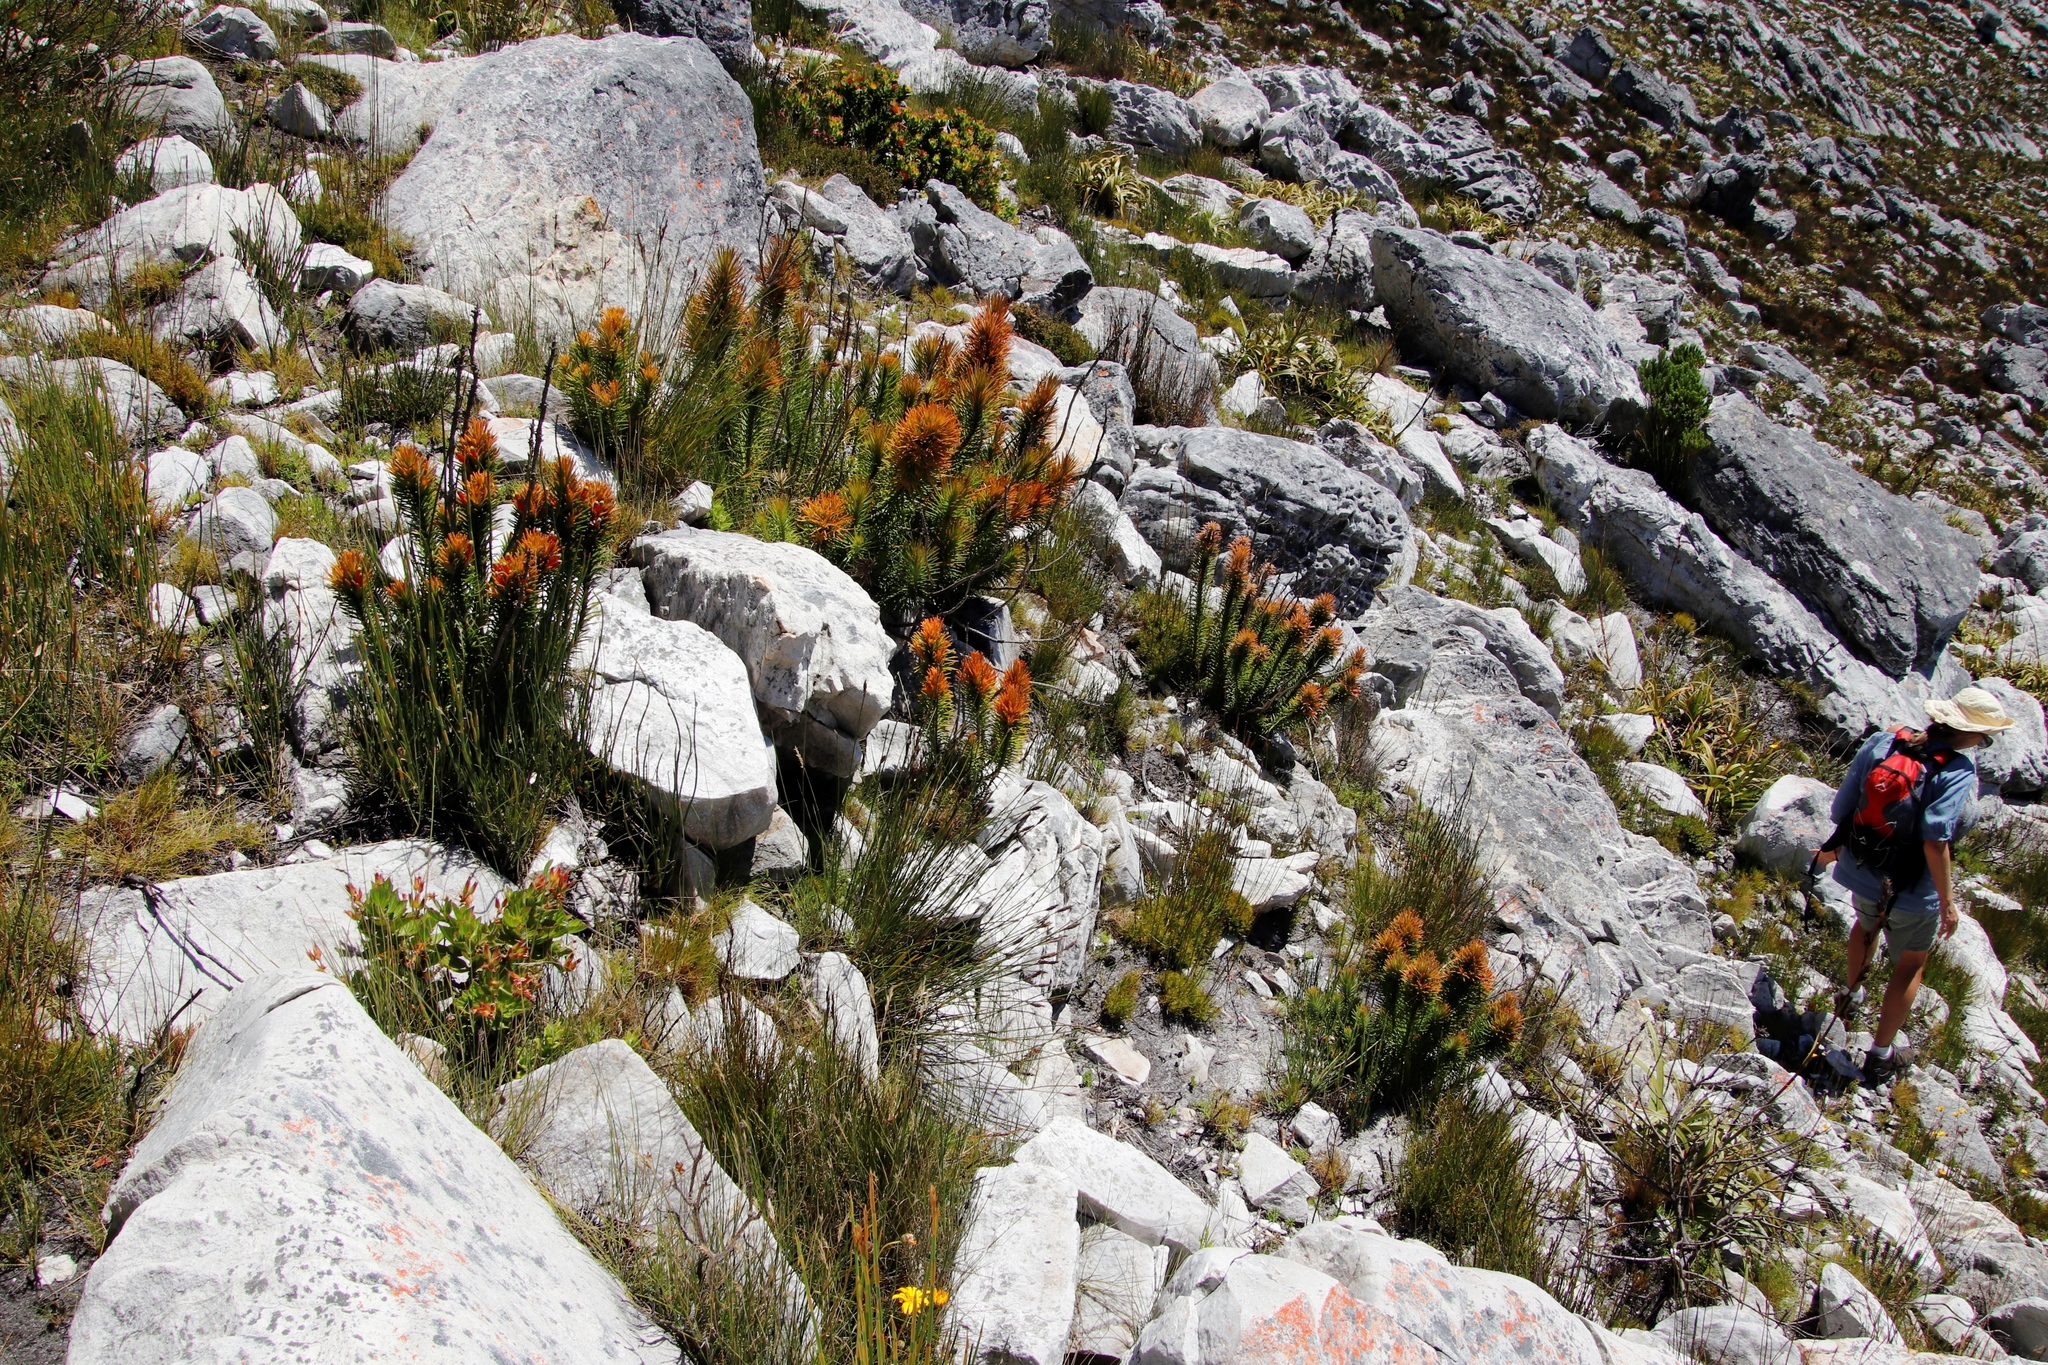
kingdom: Plantae
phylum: Tracheophyta
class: Magnoliopsida
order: Lamiales
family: Stilbaceae
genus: Retzia
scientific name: Retzia capensis
